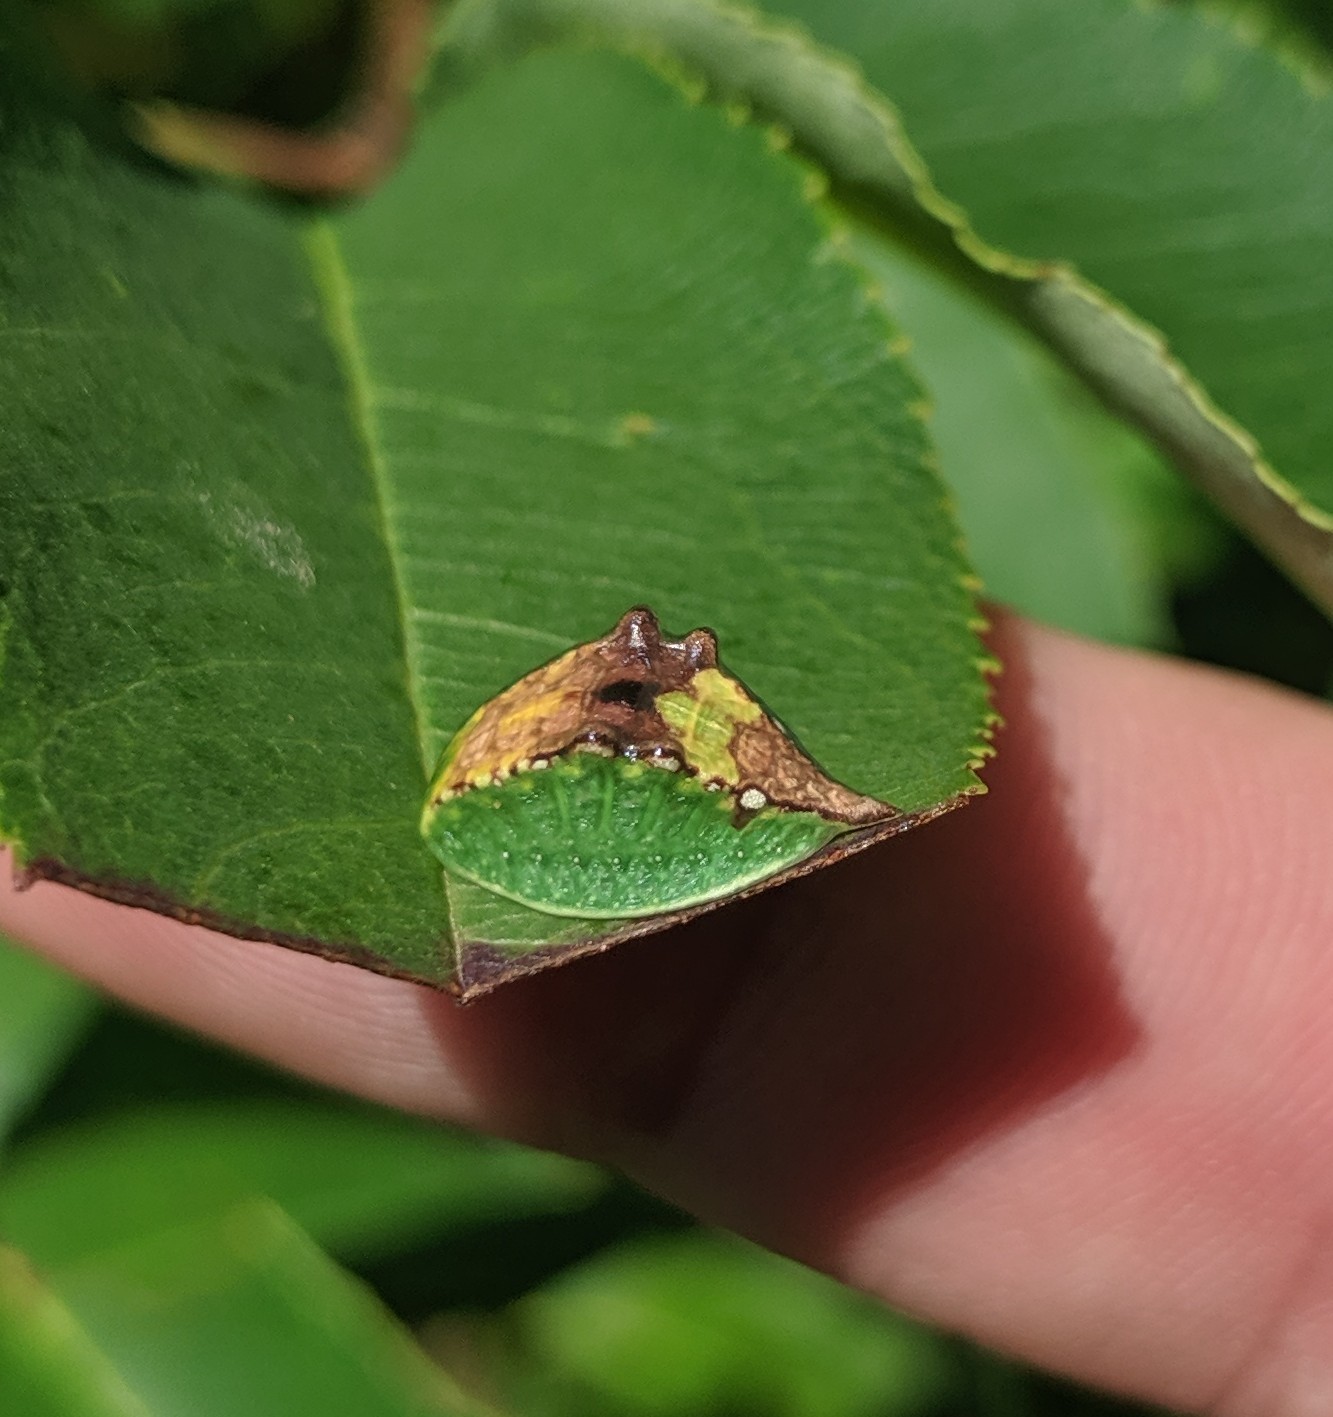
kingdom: Animalia
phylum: Arthropoda
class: Insecta
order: Lepidoptera
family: Limacodidae
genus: Prolimacodes
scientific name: Prolimacodes badia
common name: Skiff moth
